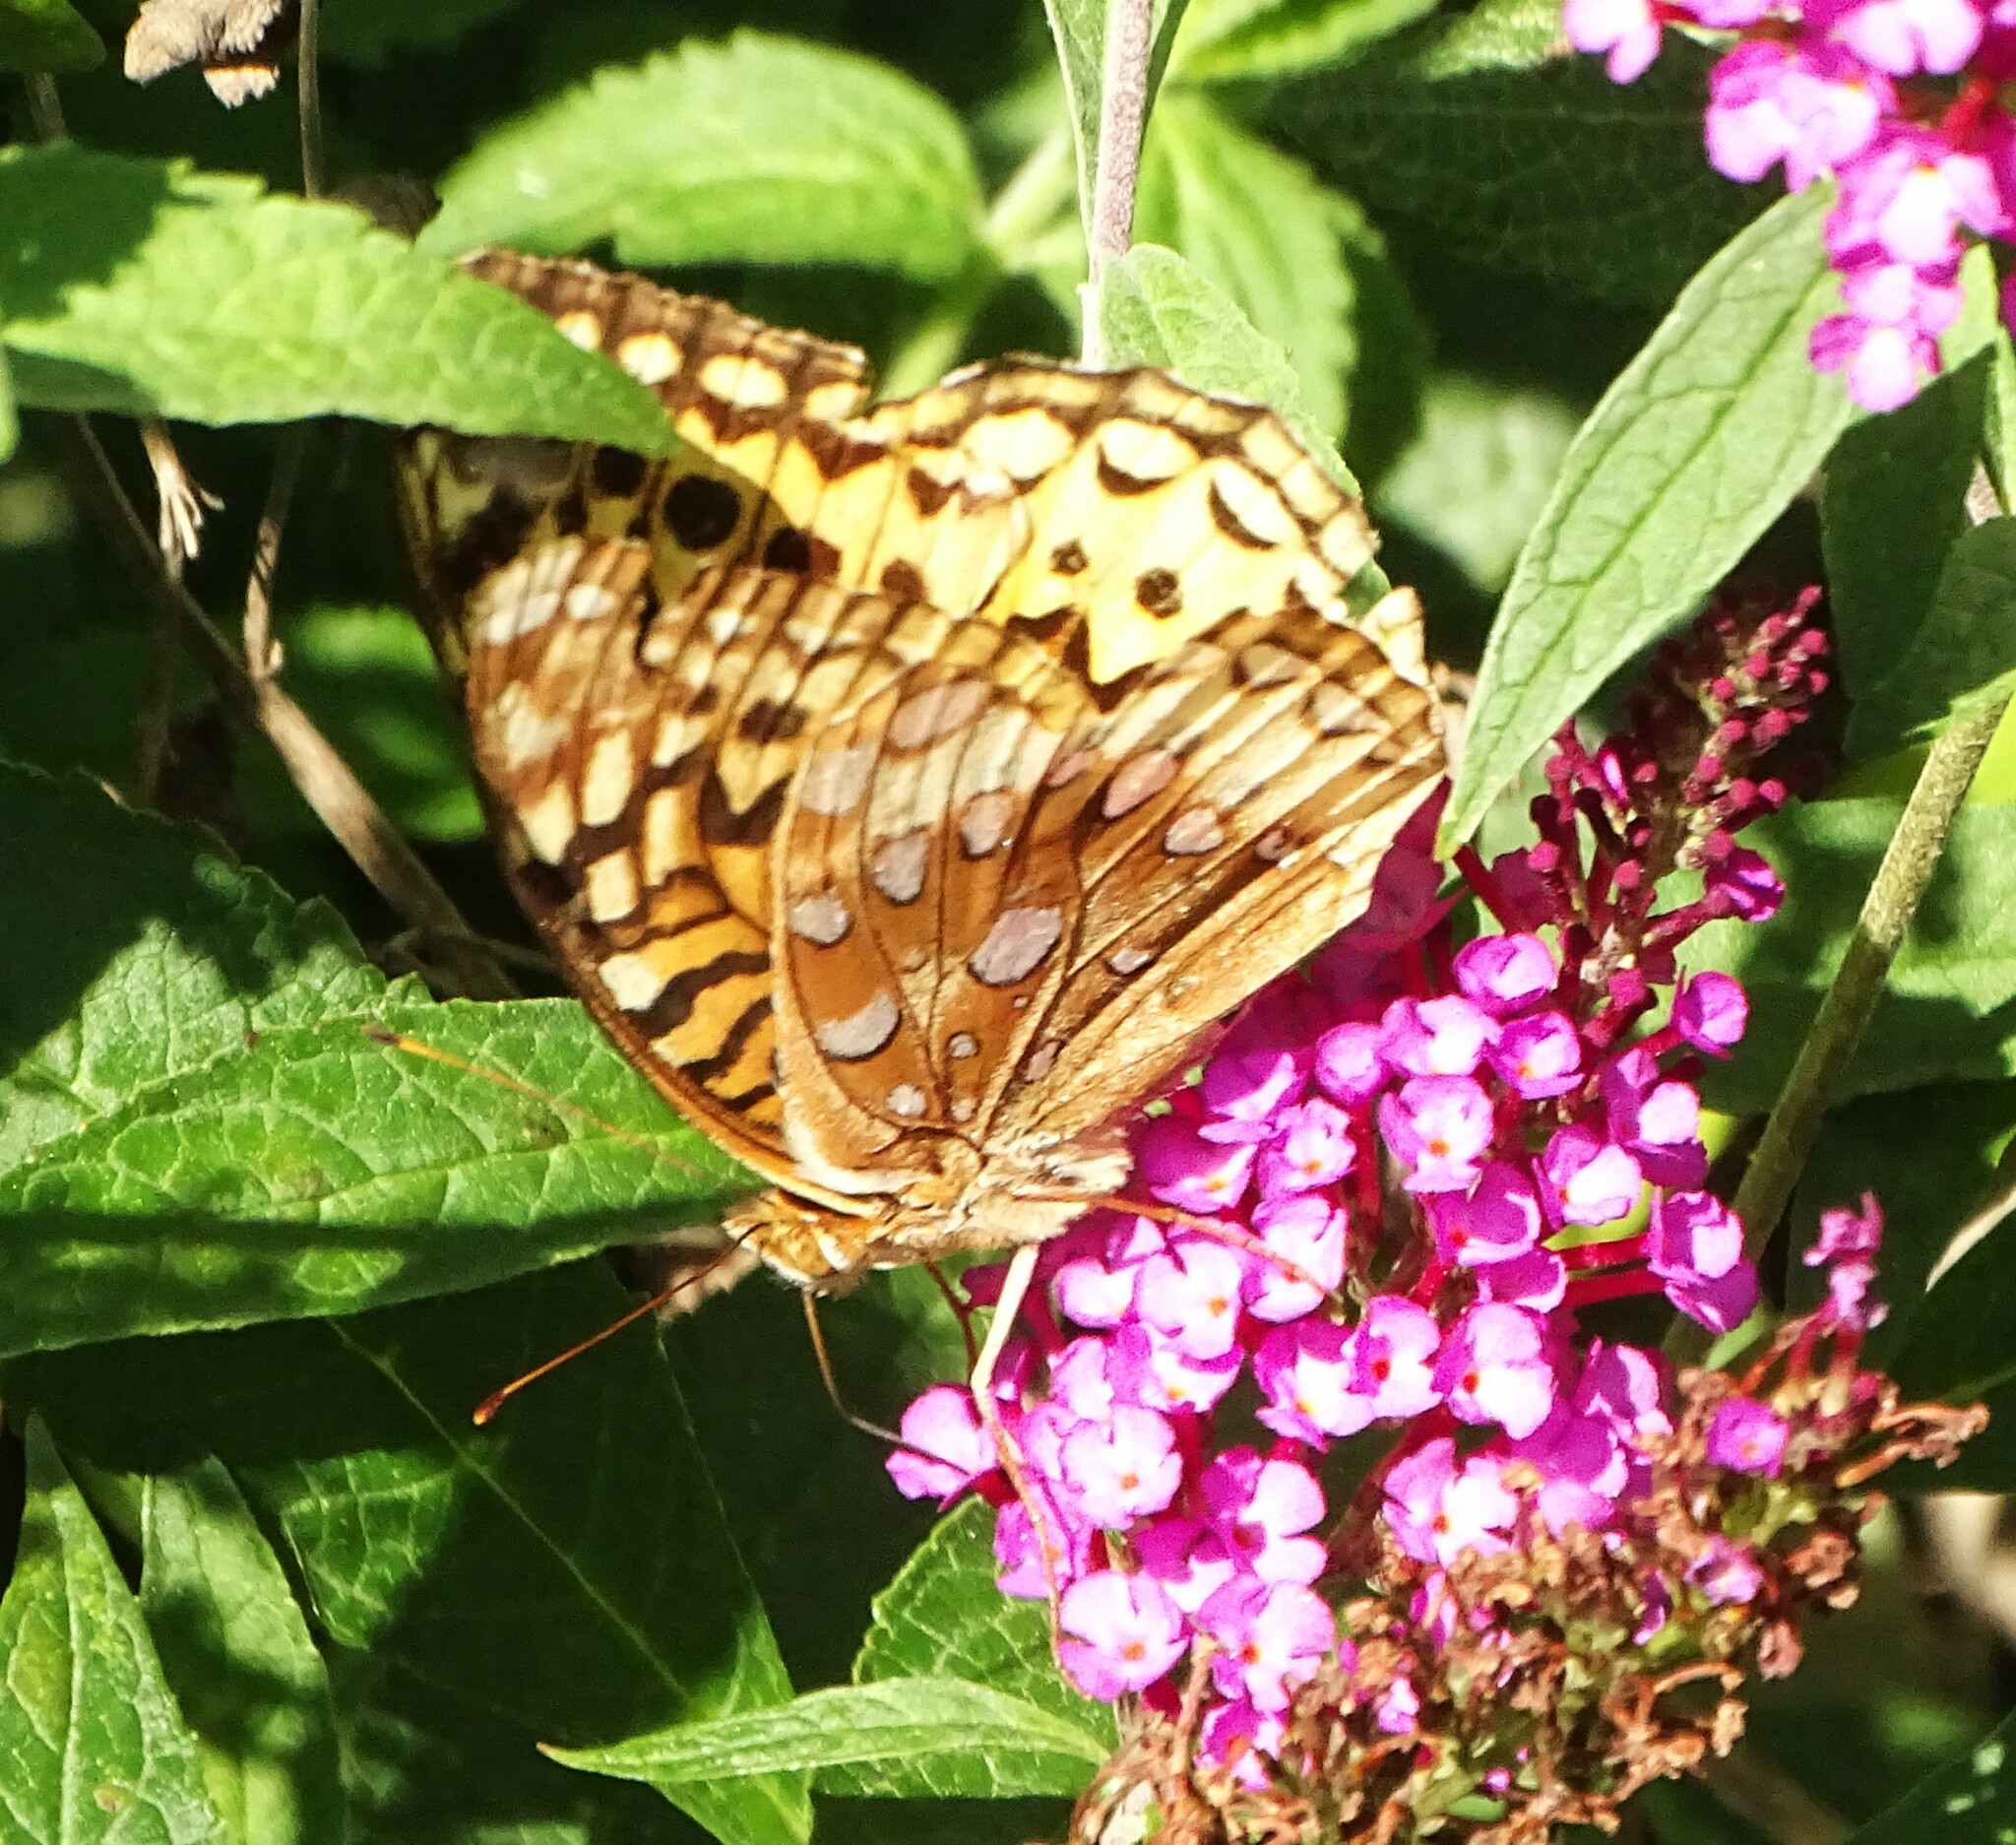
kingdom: Animalia
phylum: Arthropoda
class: Insecta
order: Lepidoptera
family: Nymphalidae
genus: Speyeria
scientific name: Speyeria cybele
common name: Great spangled fritillary
